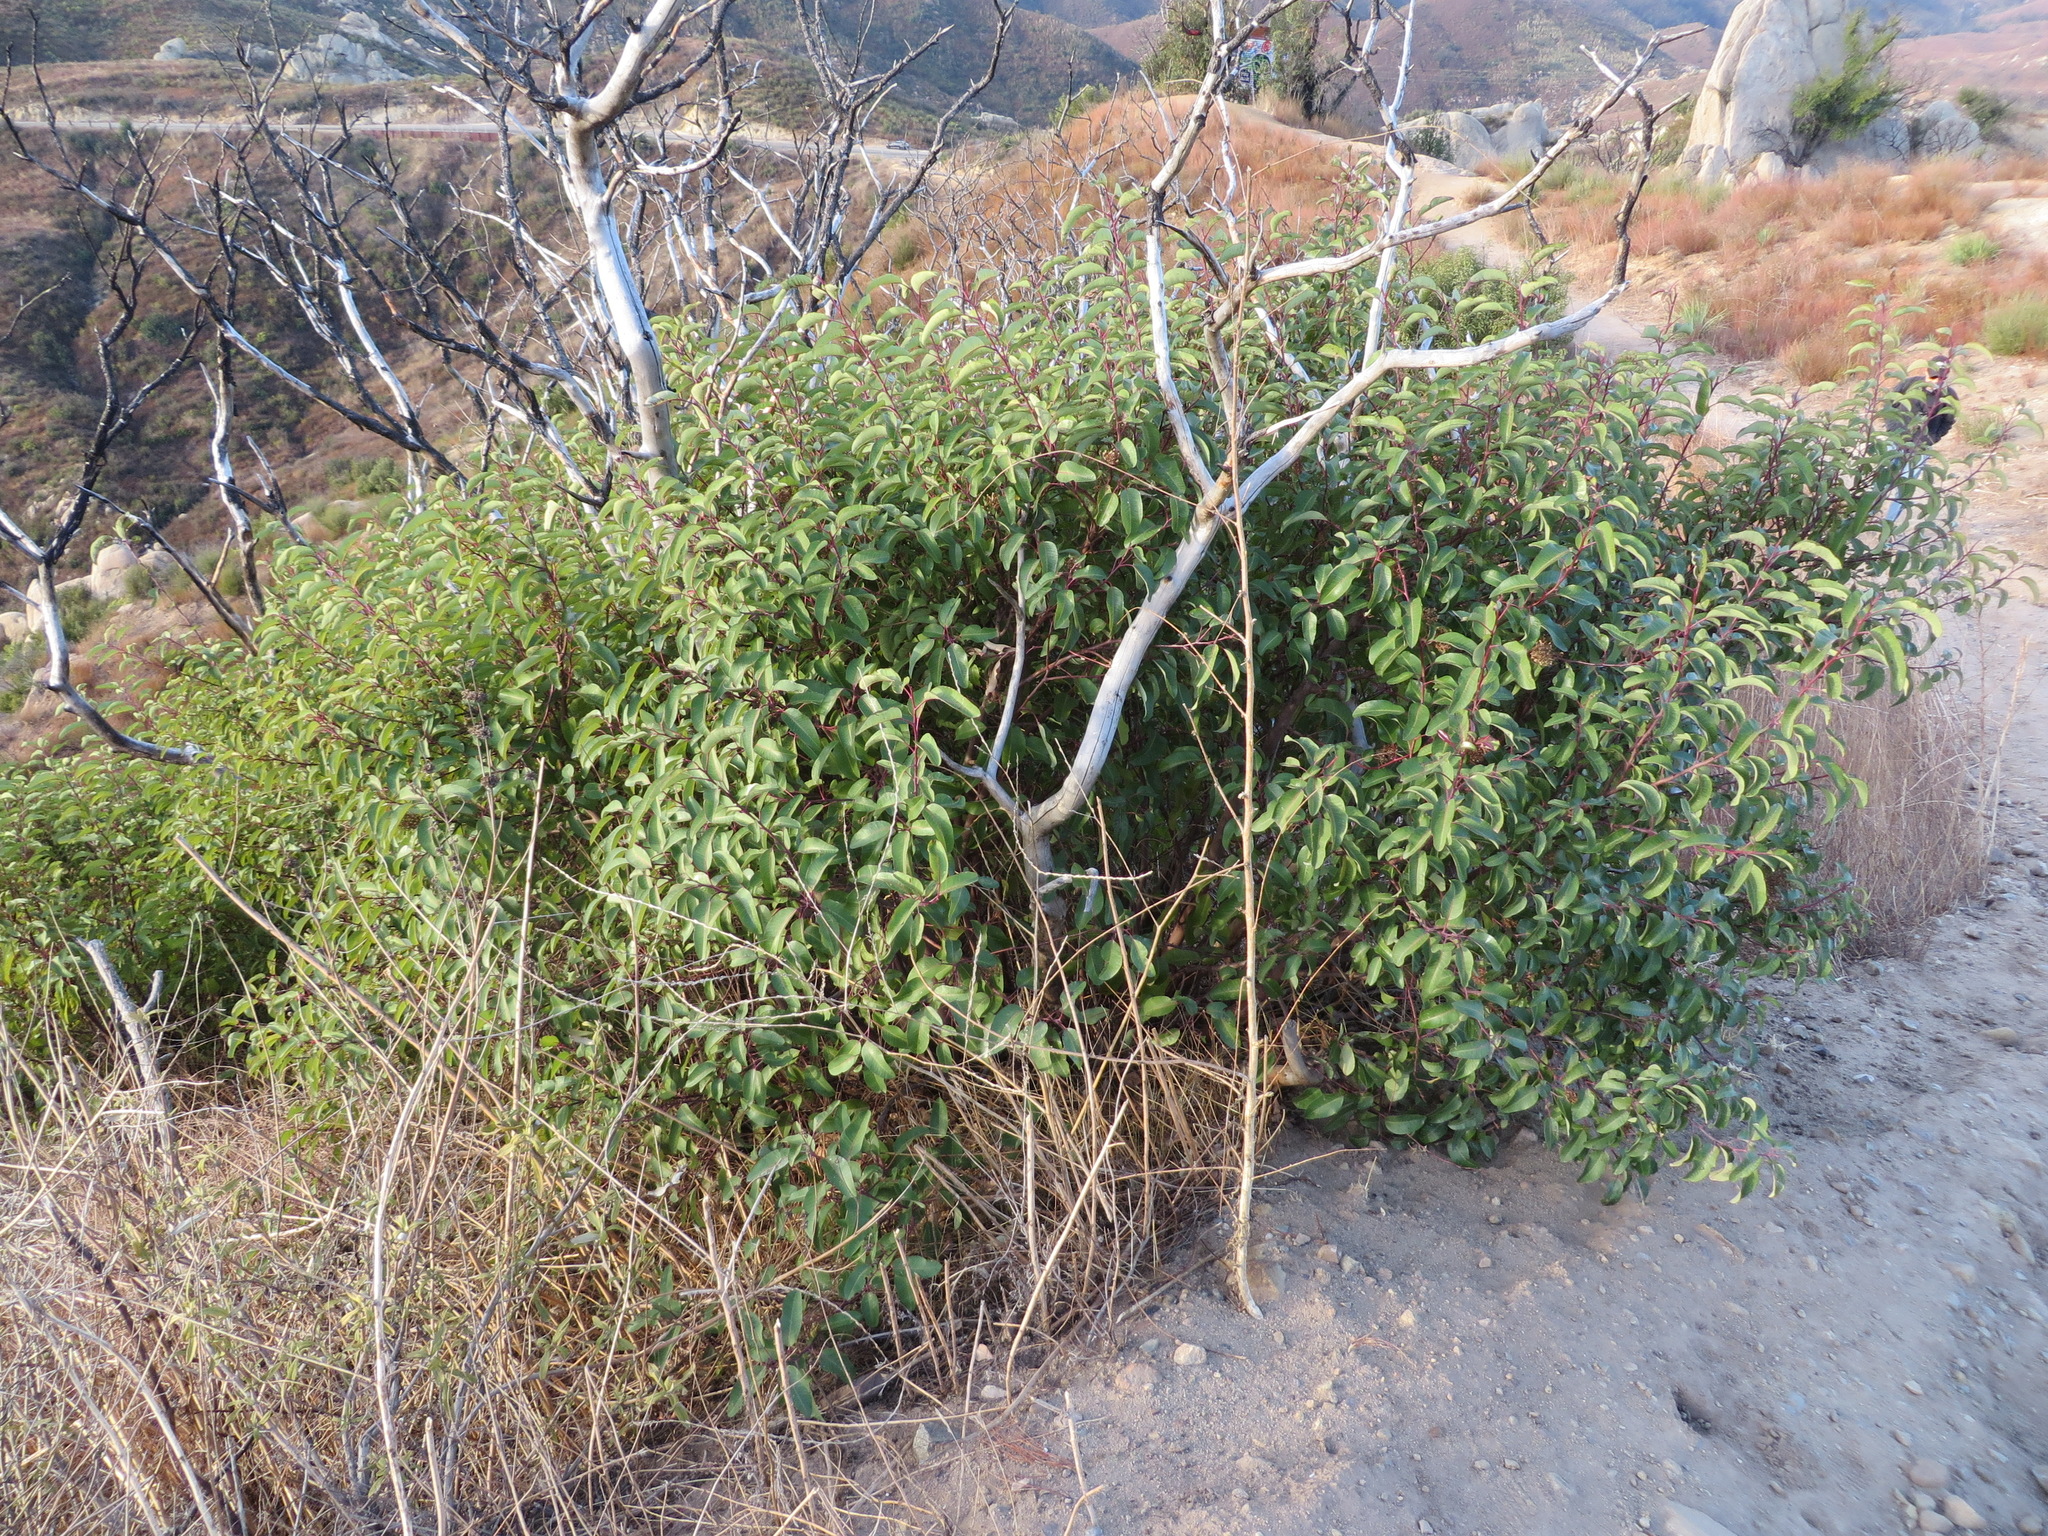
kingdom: Plantae
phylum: Tracheophyta
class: Magnoliopsida
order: Sapindales
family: Anacardiaceae
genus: Malosma
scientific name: Malosma laurina
